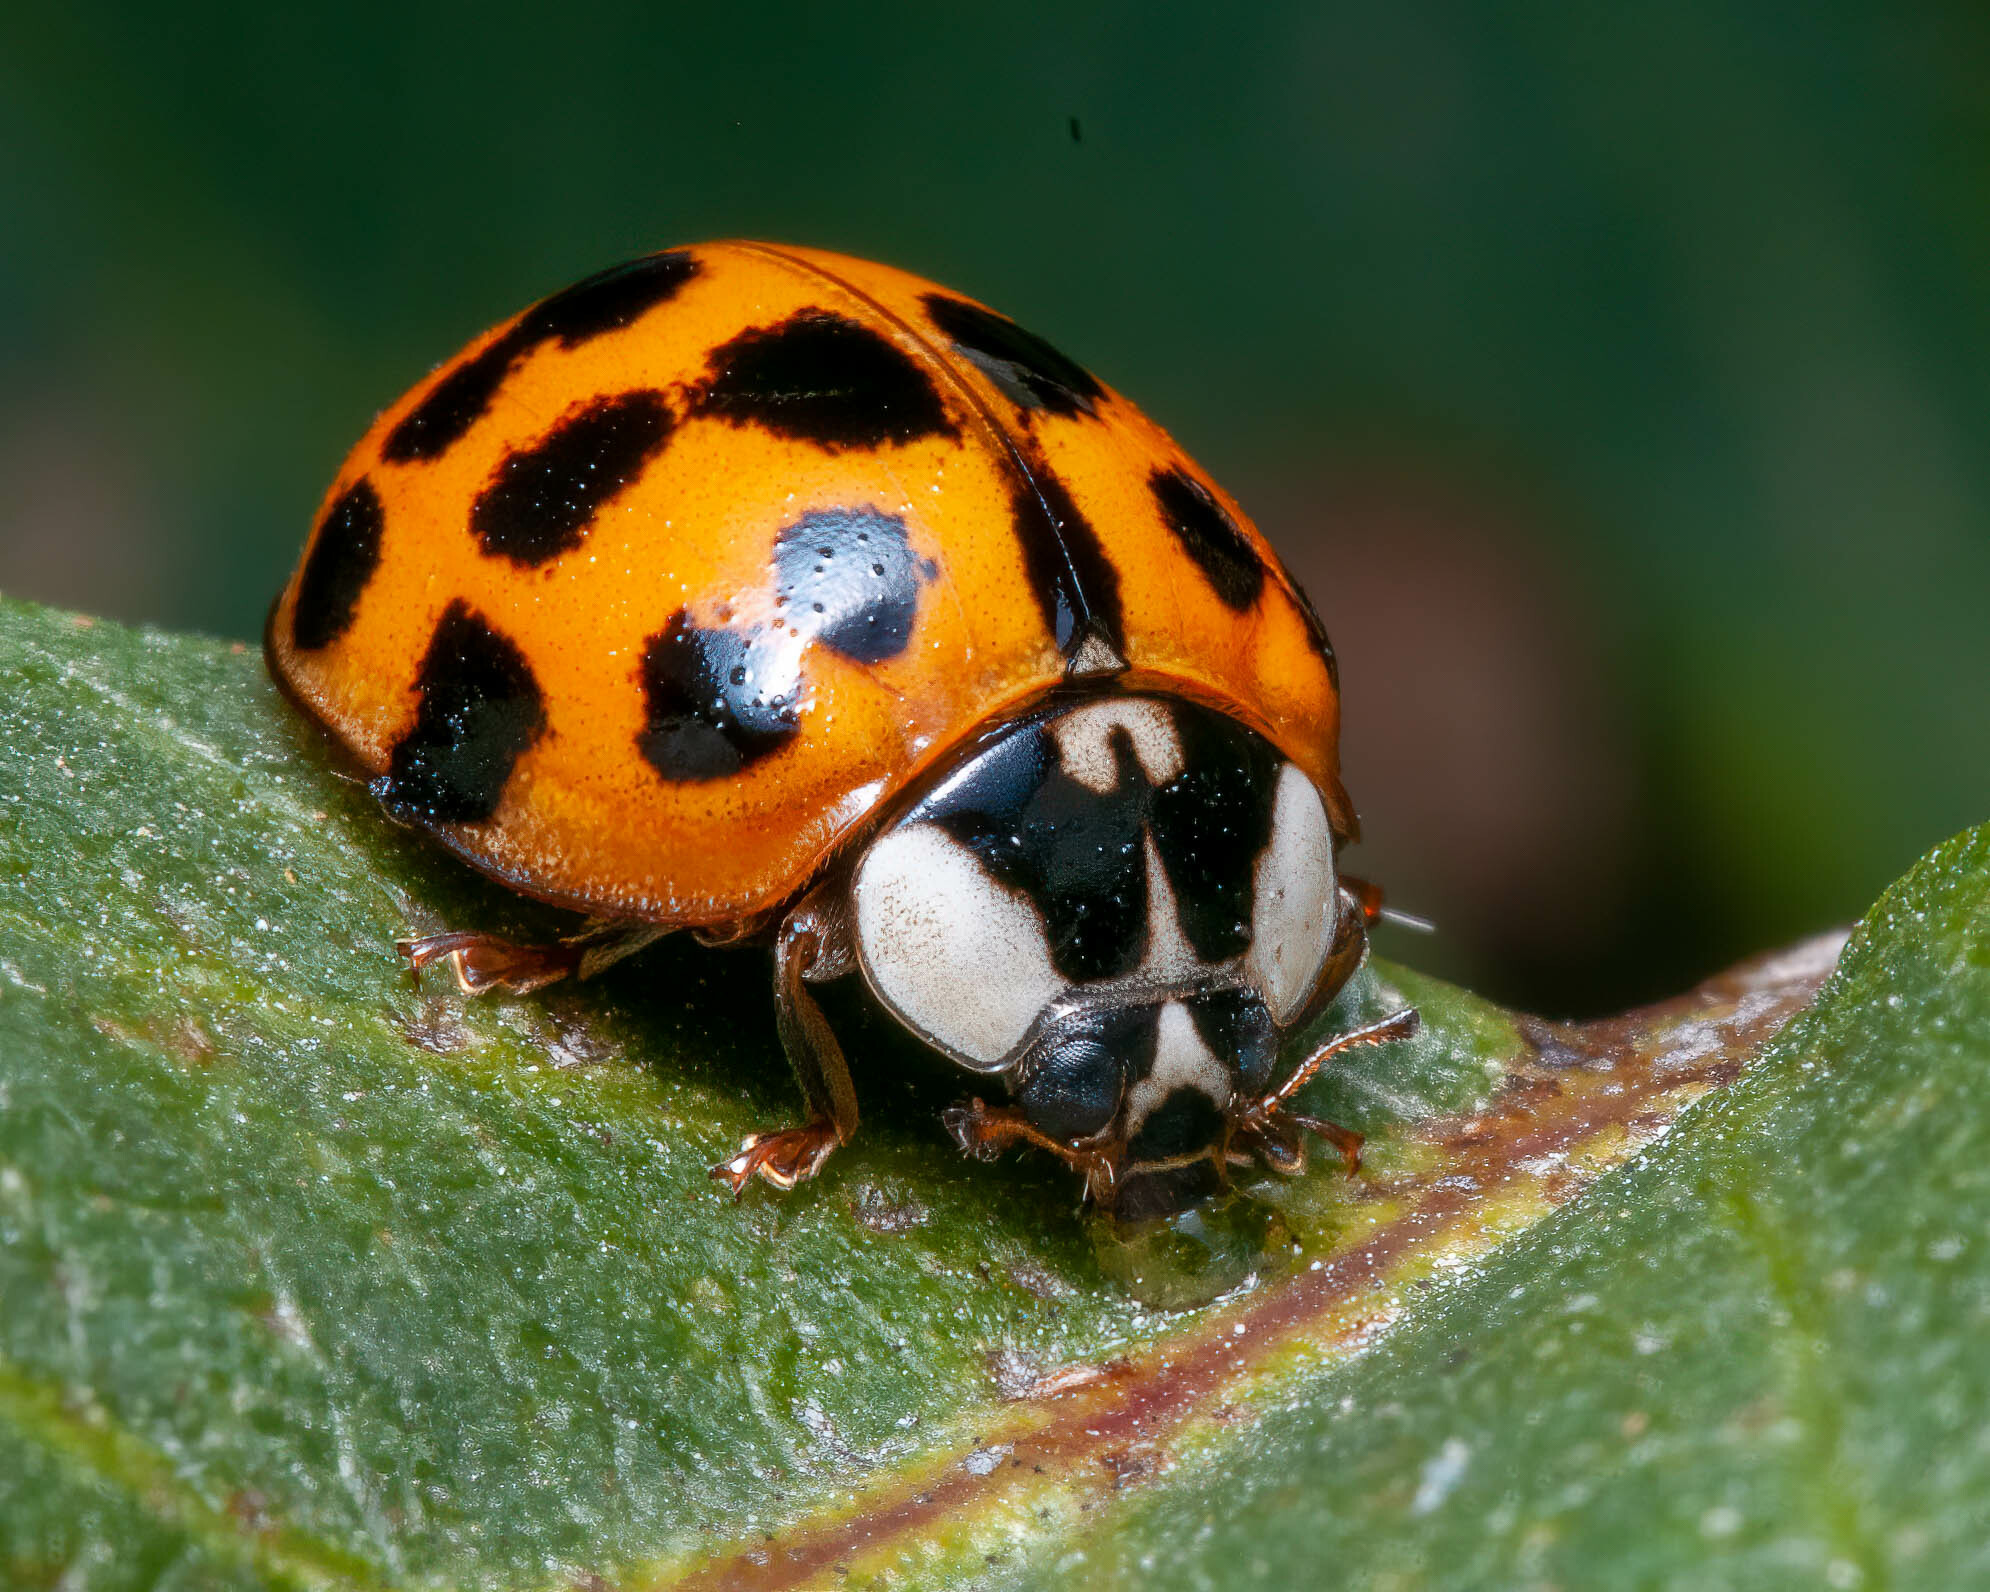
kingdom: Animalia
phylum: Arthropoda
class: Insecta
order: Coleoptera
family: Coccinellidae
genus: Harmonia
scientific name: Harmonia axyridis
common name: Harlequin ladybird
